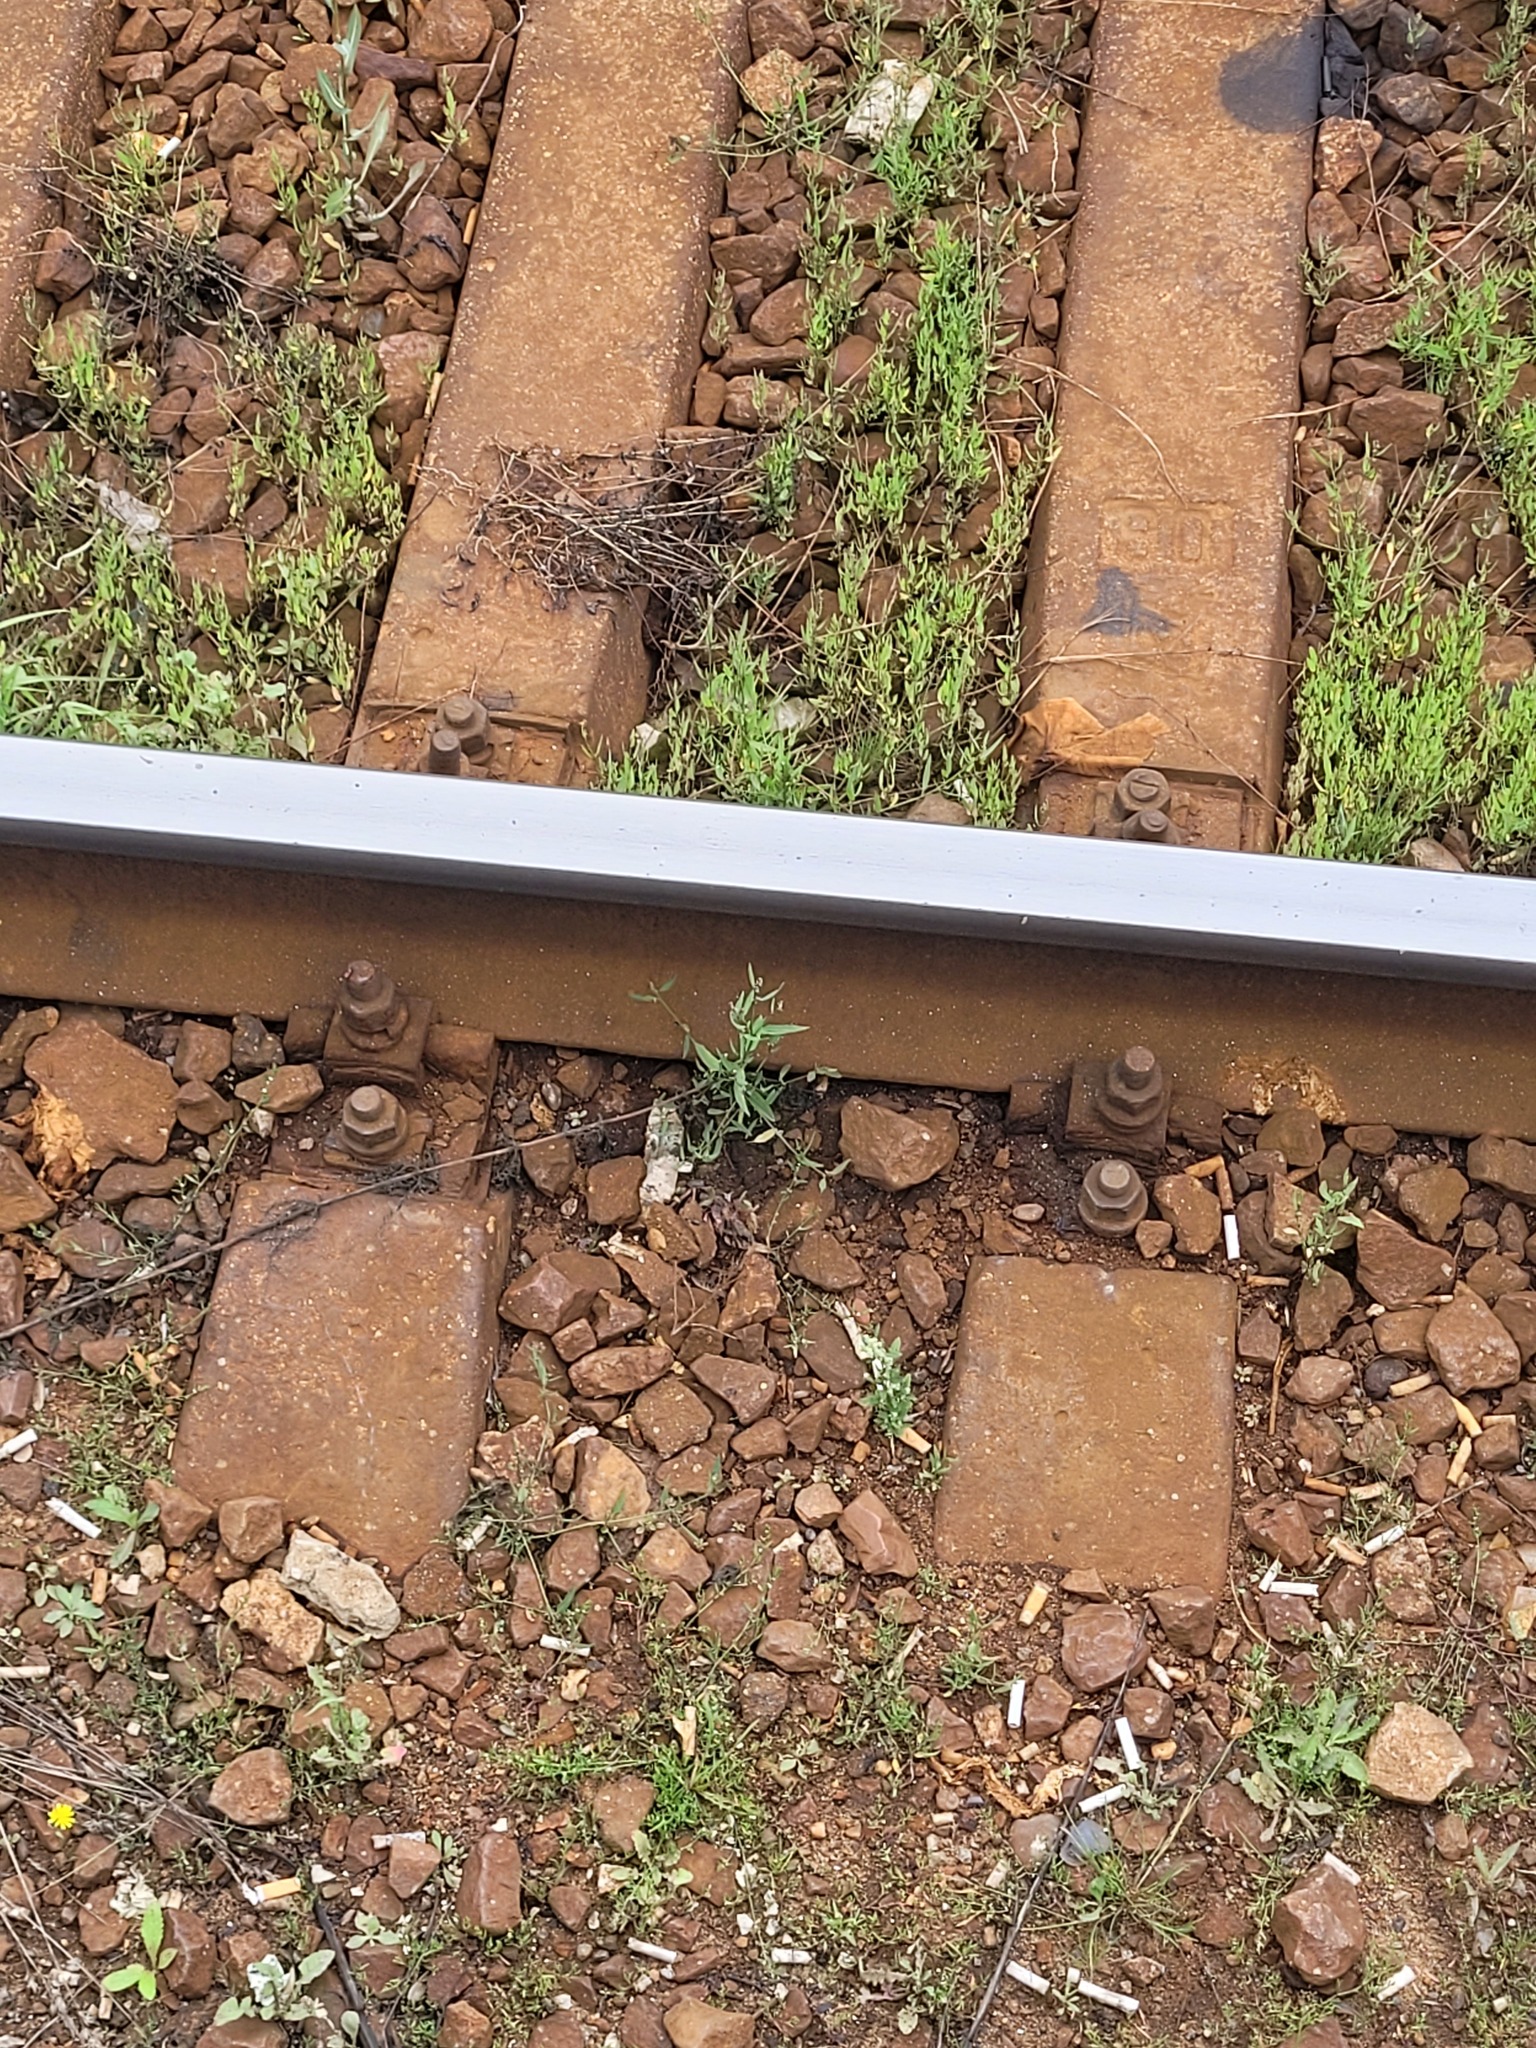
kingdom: Plantae
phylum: Tracheophyta
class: Magnoliopsida
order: Caryophyllales
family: Amaranthaceae
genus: Atriplex
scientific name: Atriplex patula
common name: Common orache
